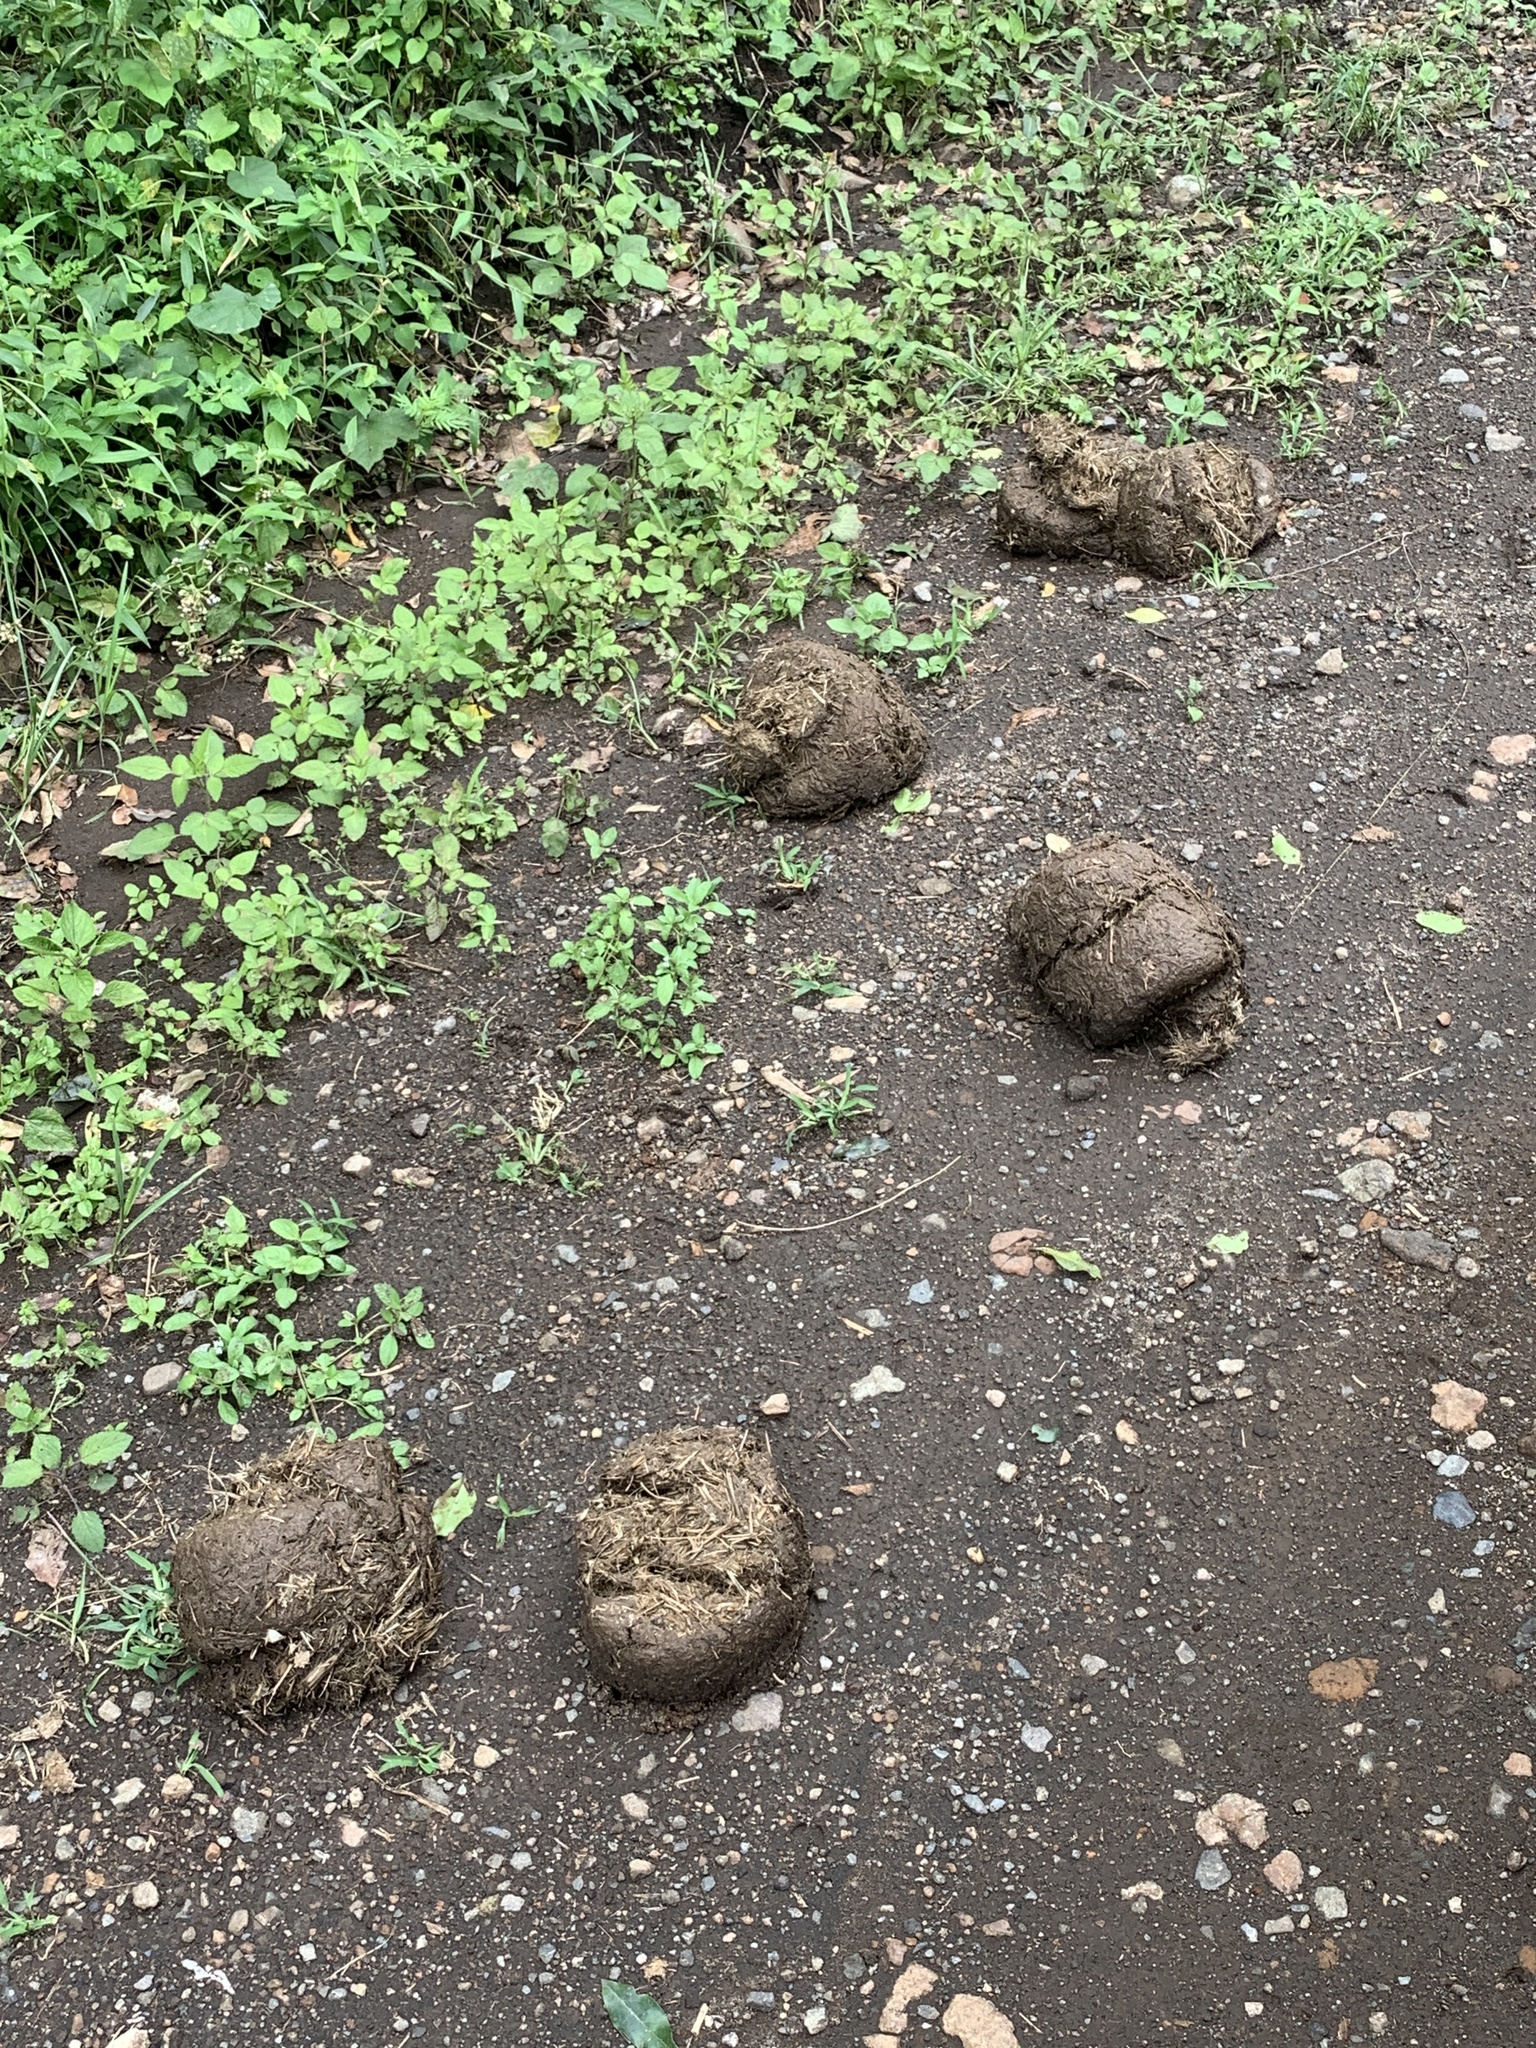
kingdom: Animalia
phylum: Chordata
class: Mammalia
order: Proboscidea
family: Elephantidae
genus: Loxodonta
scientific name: Loxodonta africana
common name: African elephant
